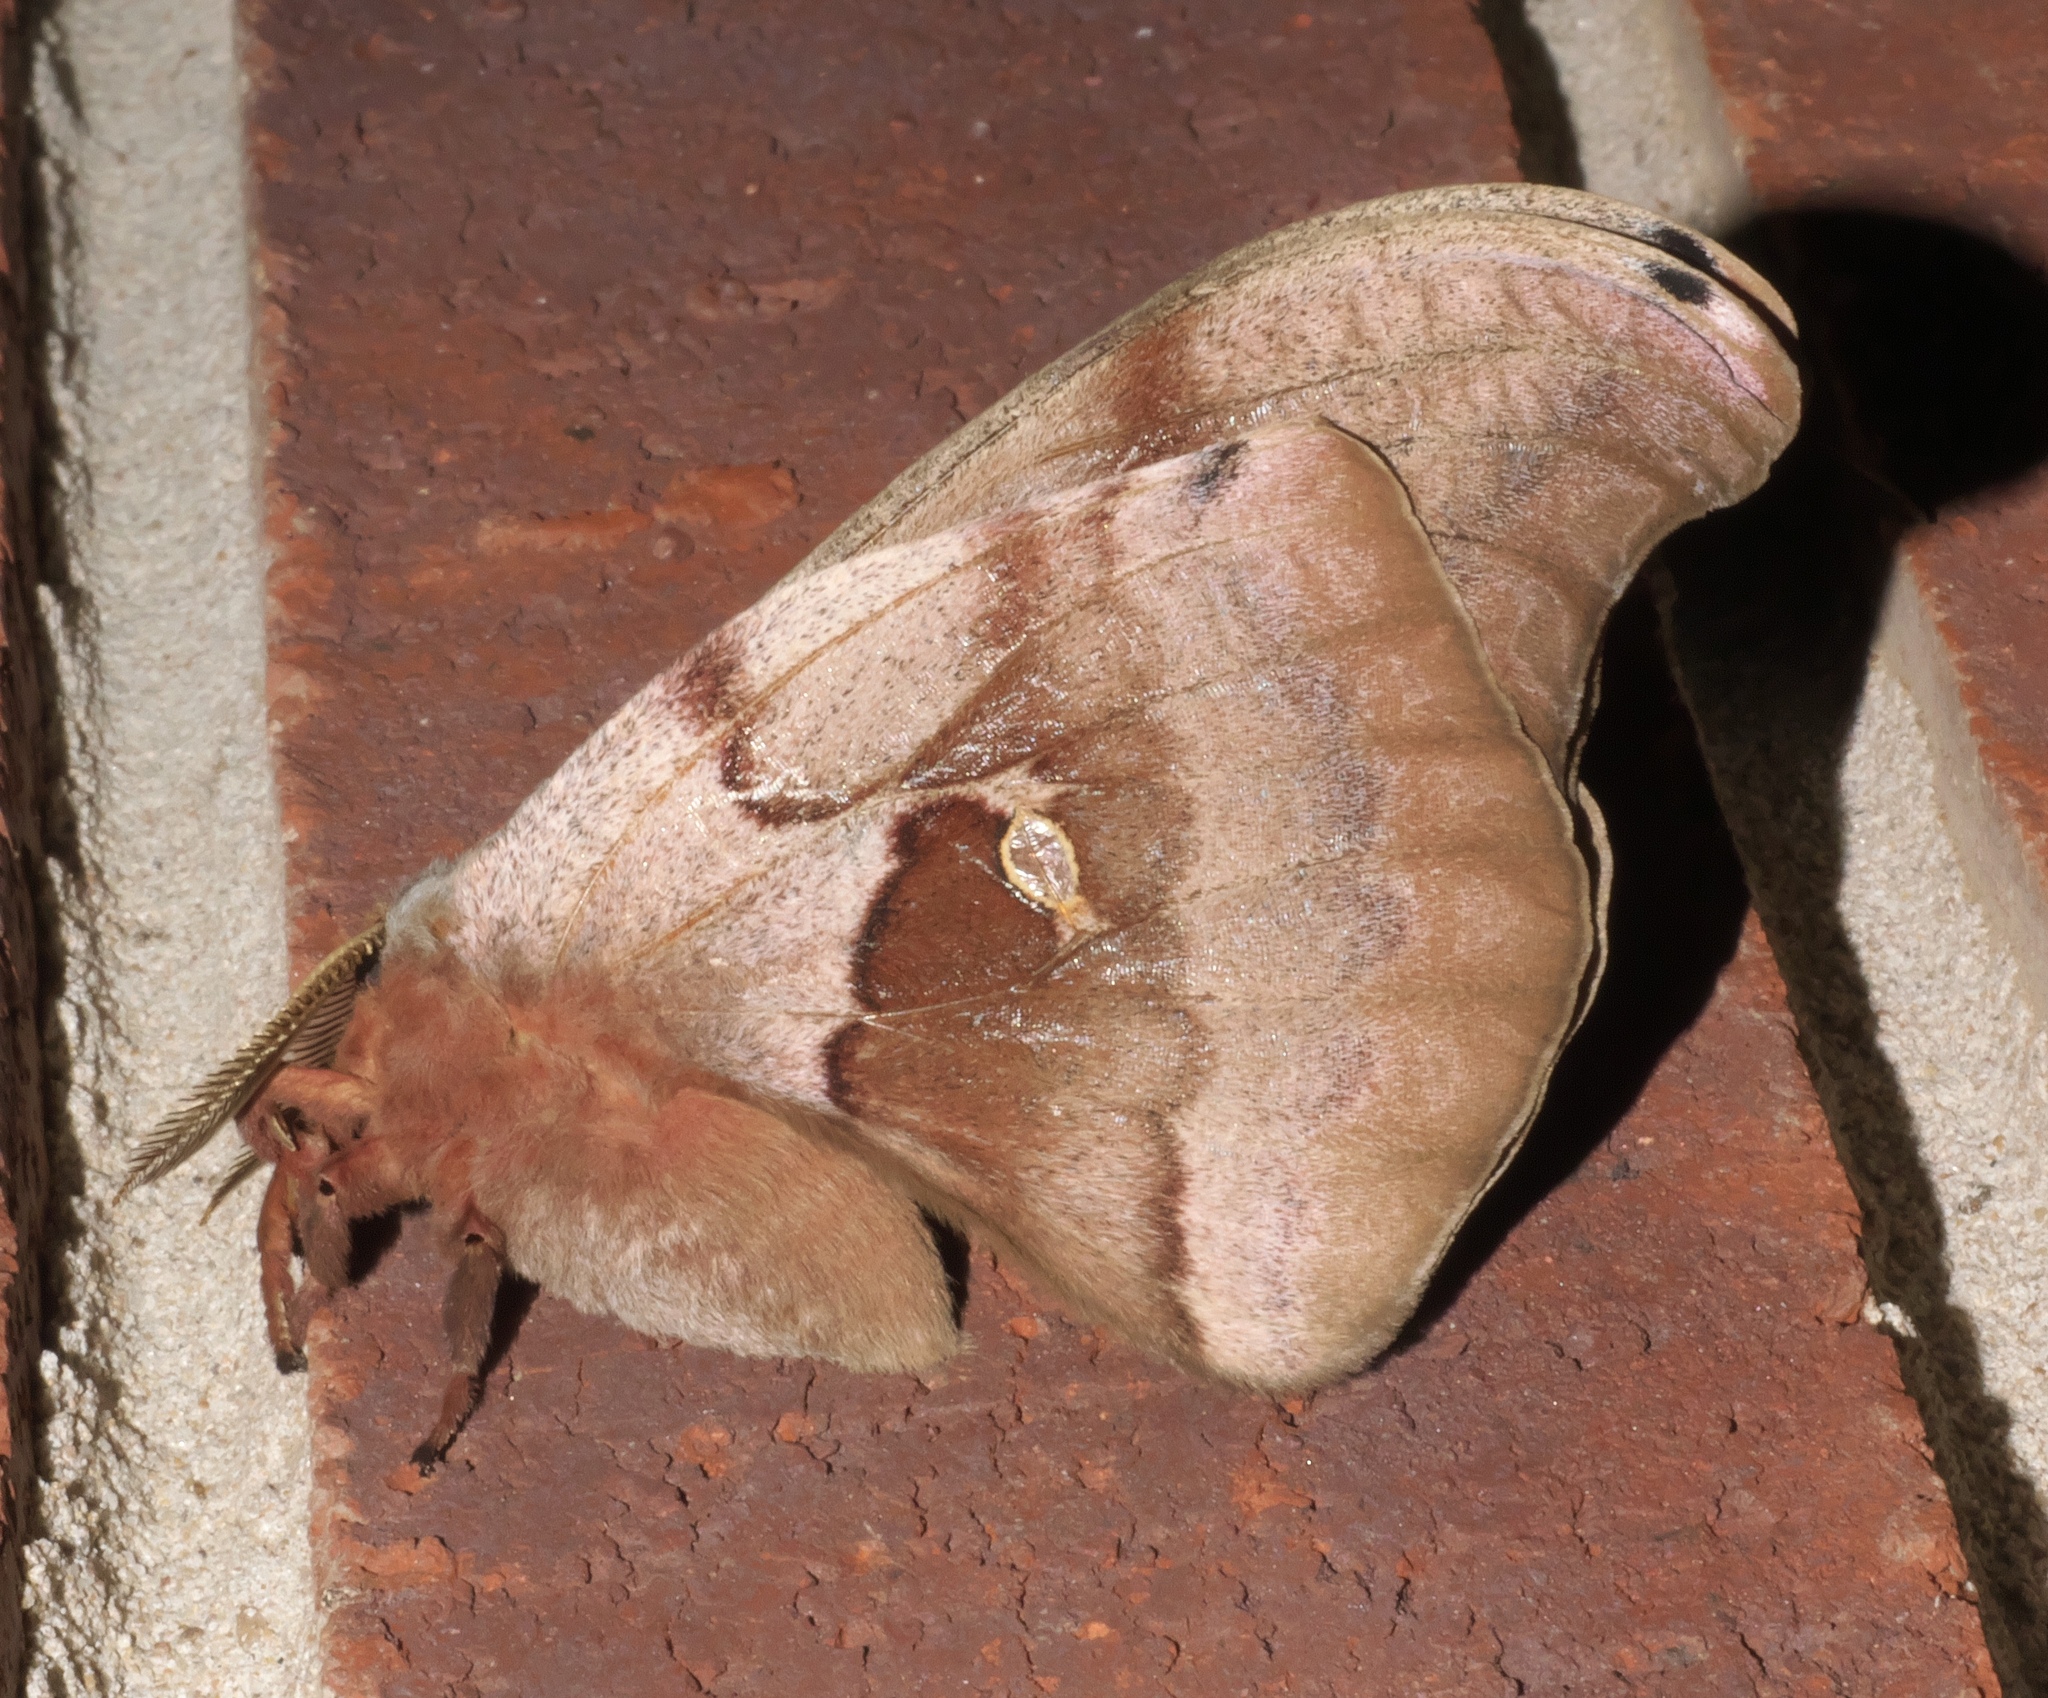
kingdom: Animalia
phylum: Arthropoda
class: Insecta
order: Lepidoptera
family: Saturniidae
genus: Antheraea
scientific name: Antheraea polyphemus
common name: Polyphemus moth
